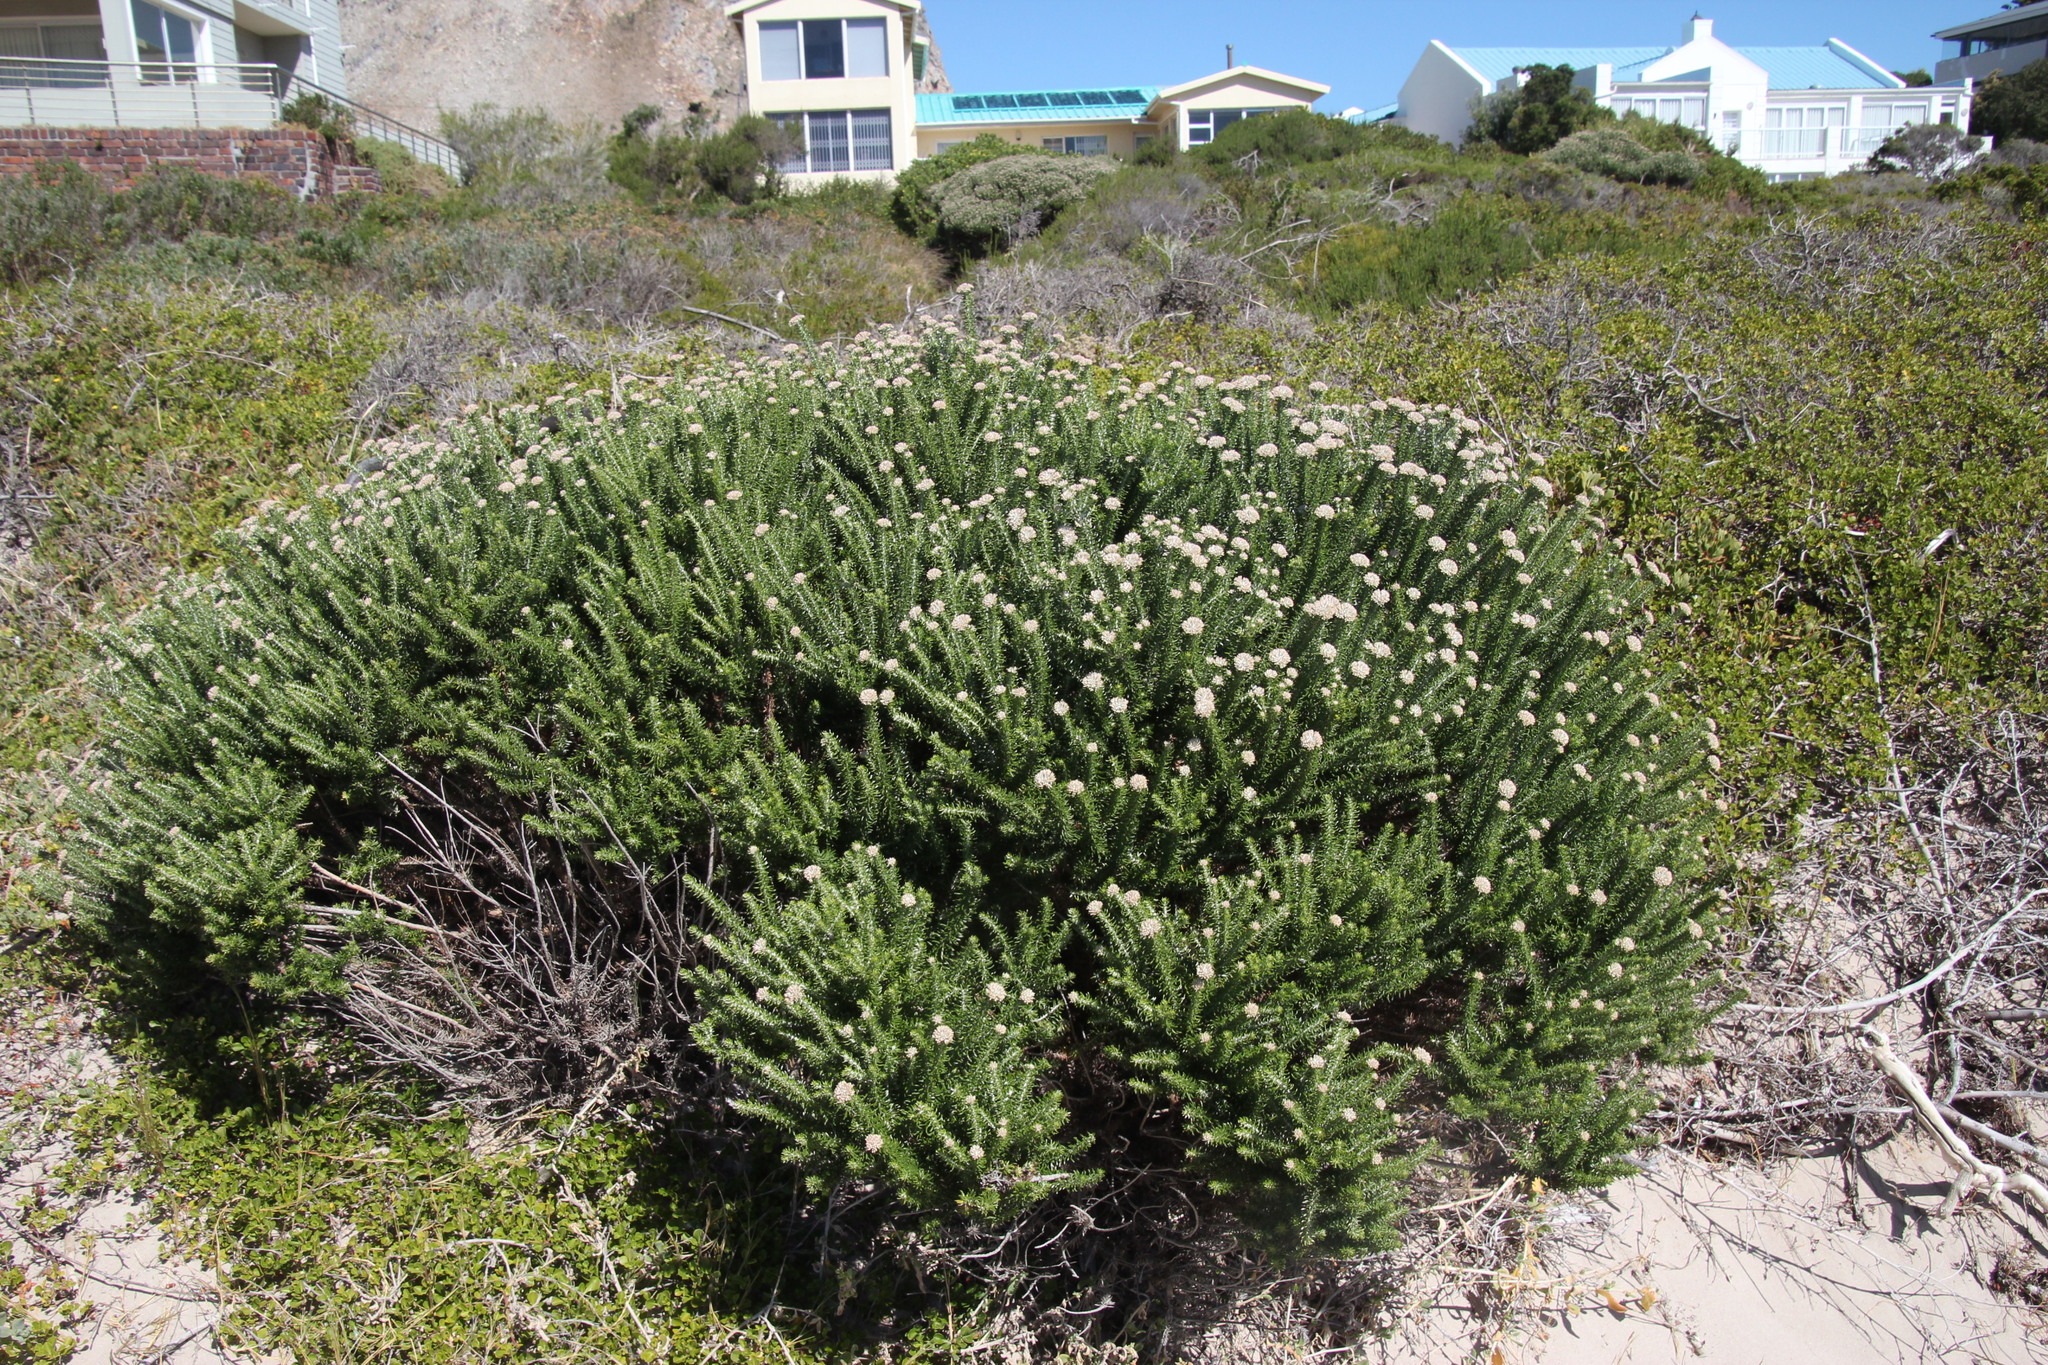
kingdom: Plantae
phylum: Tracheophyta
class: Magnoliopsida
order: Asterales
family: Asteraceae
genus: Metalasia
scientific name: Metalasia muricata
